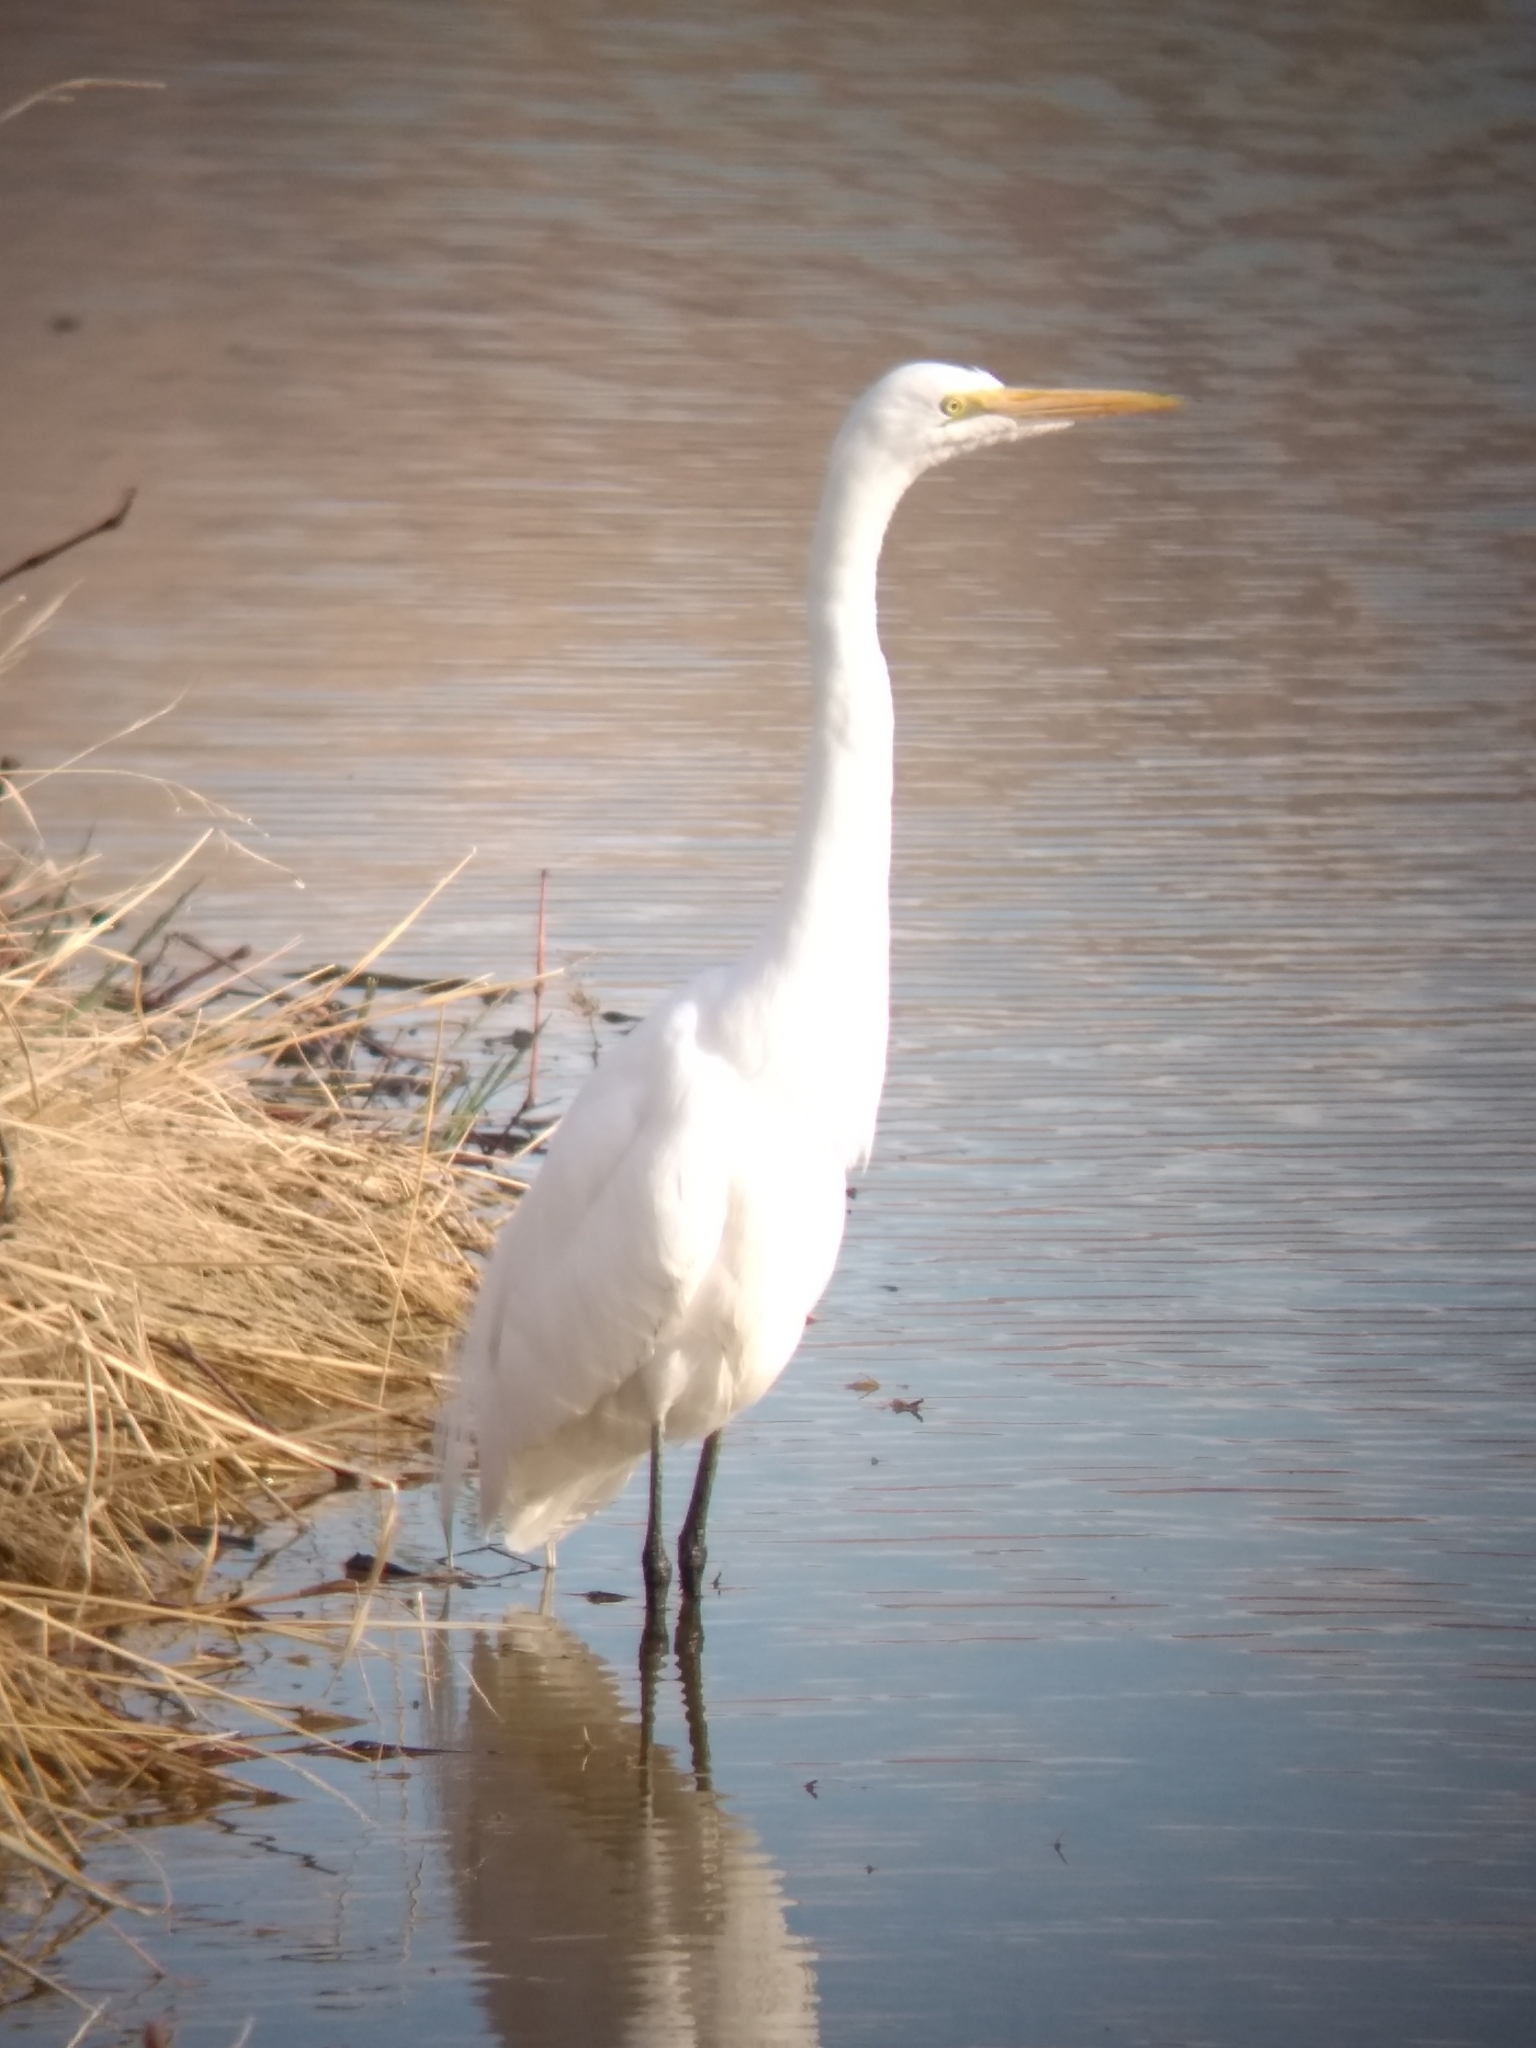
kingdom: Animalia
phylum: Chordata
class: Aves
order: Pelecaniformes
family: Ardeidae
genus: Ardea
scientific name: Ardea alba
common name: Great egret
